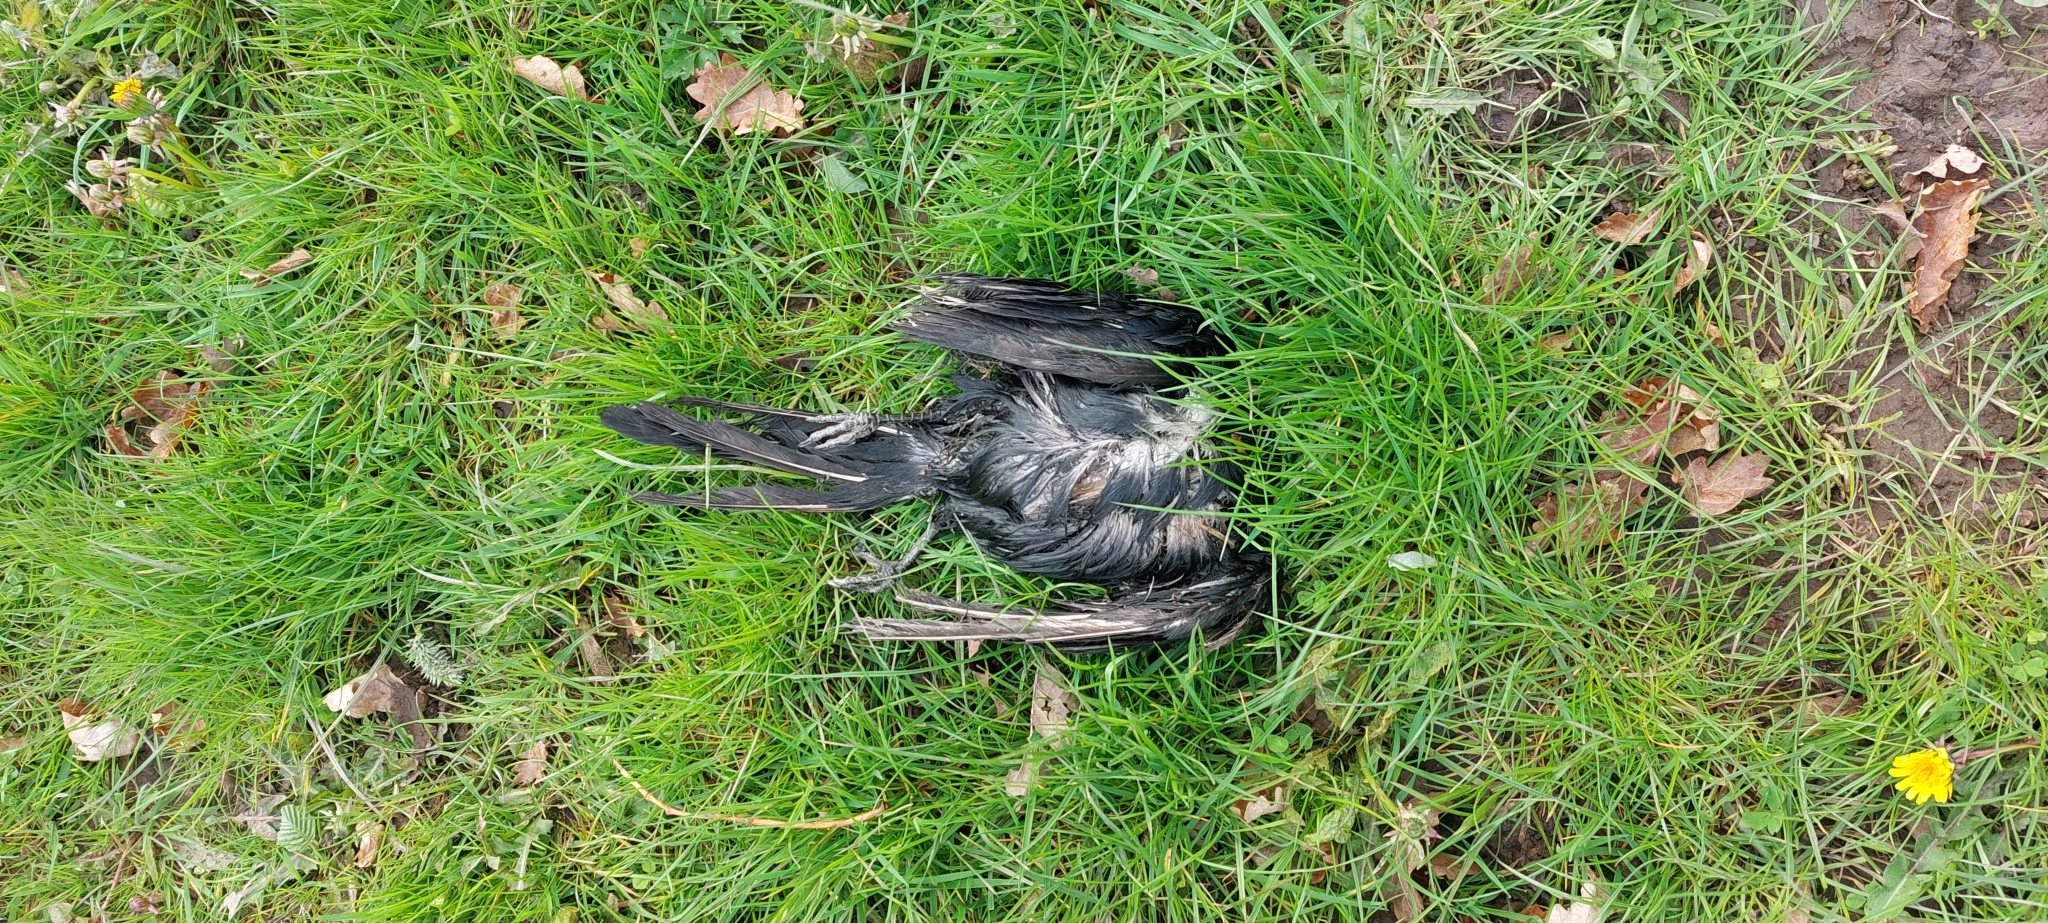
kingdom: Animalia
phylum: Chordata
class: Aves
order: Passeriformes
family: Corvidae
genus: Corvus
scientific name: Corvus corone
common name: Carrion crow
